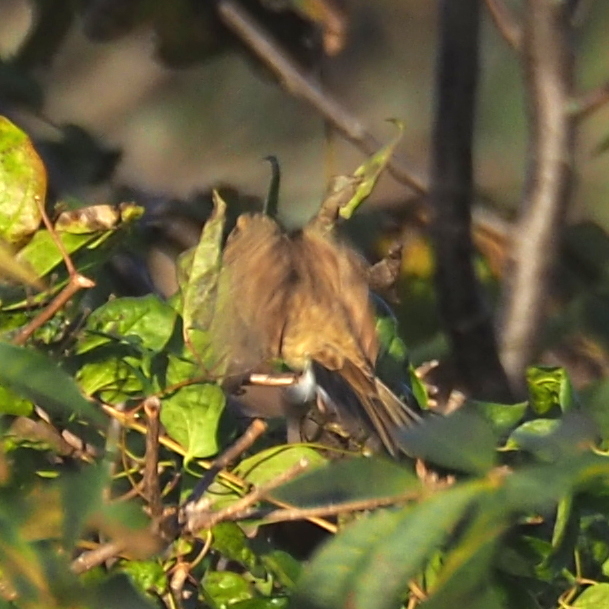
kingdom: Animalia
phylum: Chordata
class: Aves
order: Passeriformes
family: Emberizidae
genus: Emberiza
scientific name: Emberiza cirlus
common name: Cirl bunting
